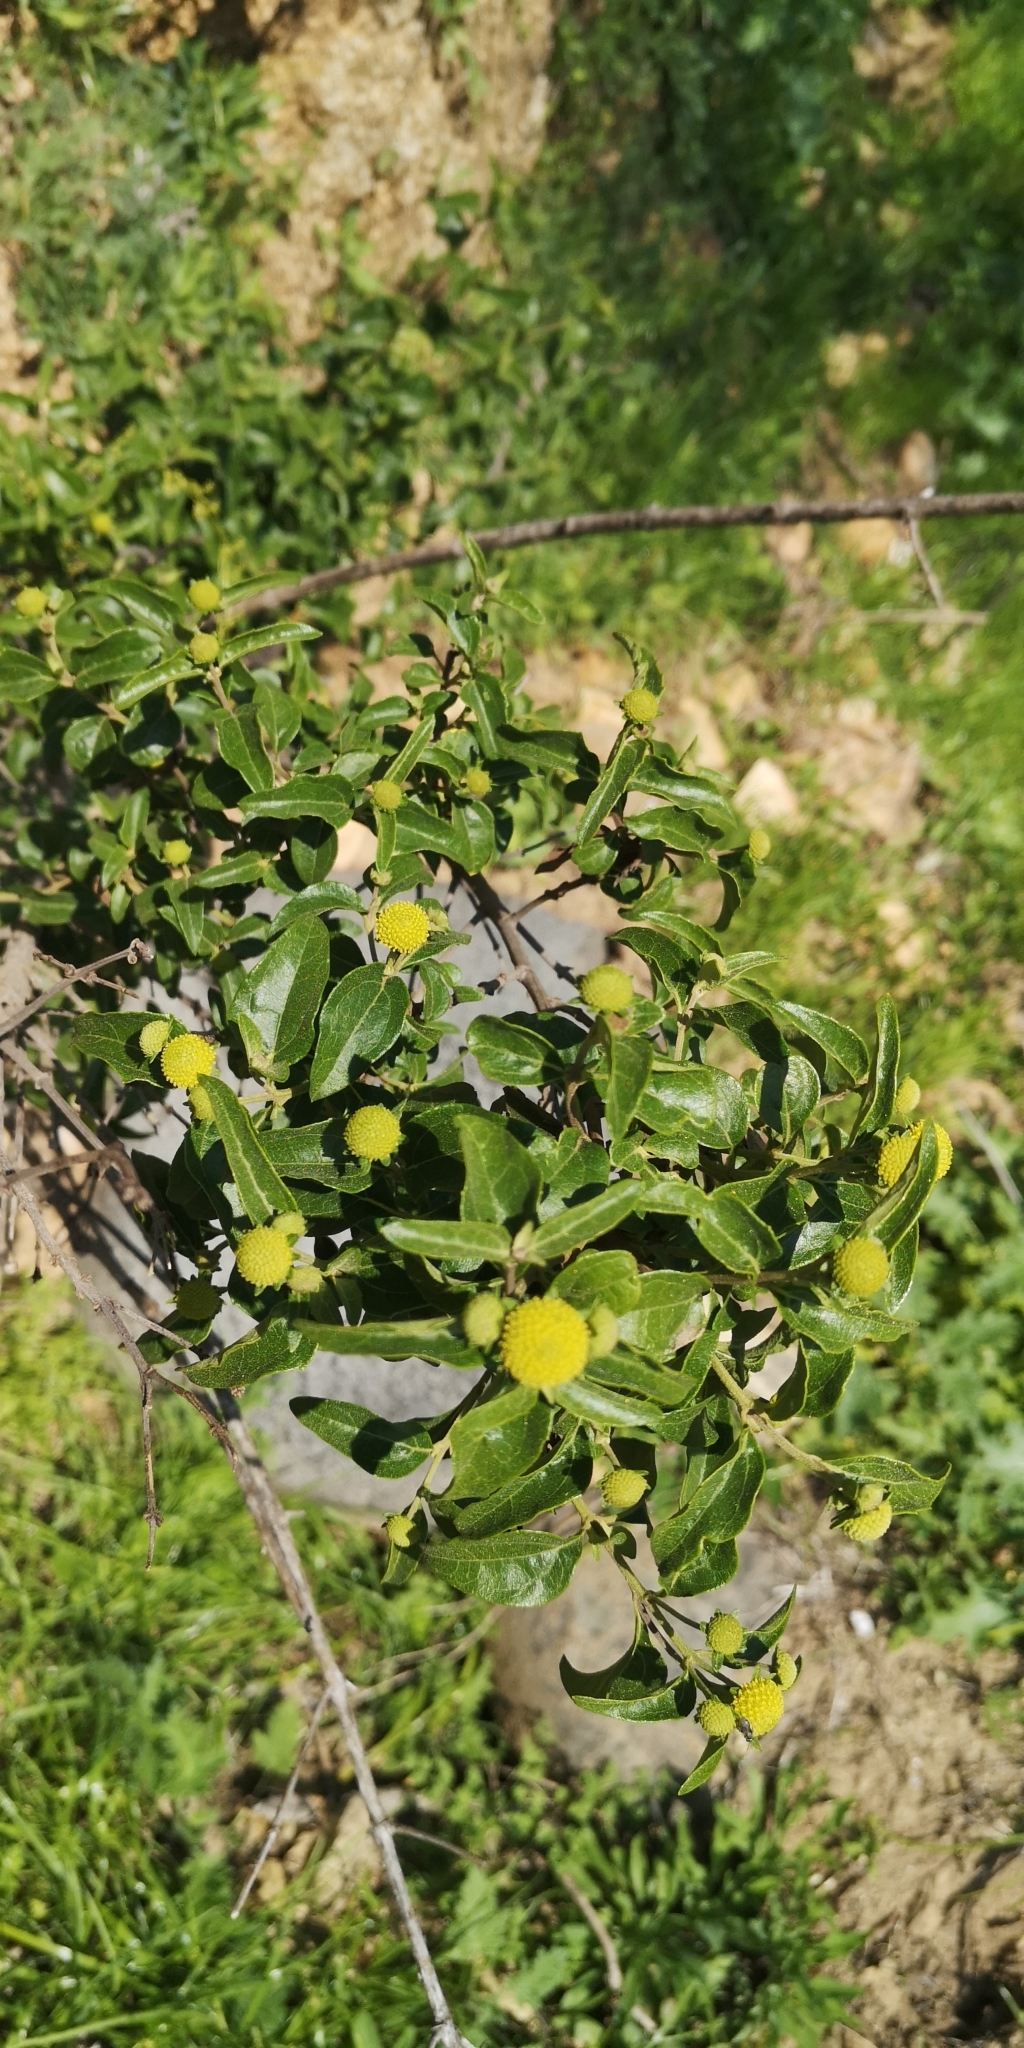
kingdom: Plantae
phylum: Tracheophyta
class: Magnoliopsida
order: Asterales
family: Asteraceae
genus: Podanthus
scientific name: Podanthus mitiqui
